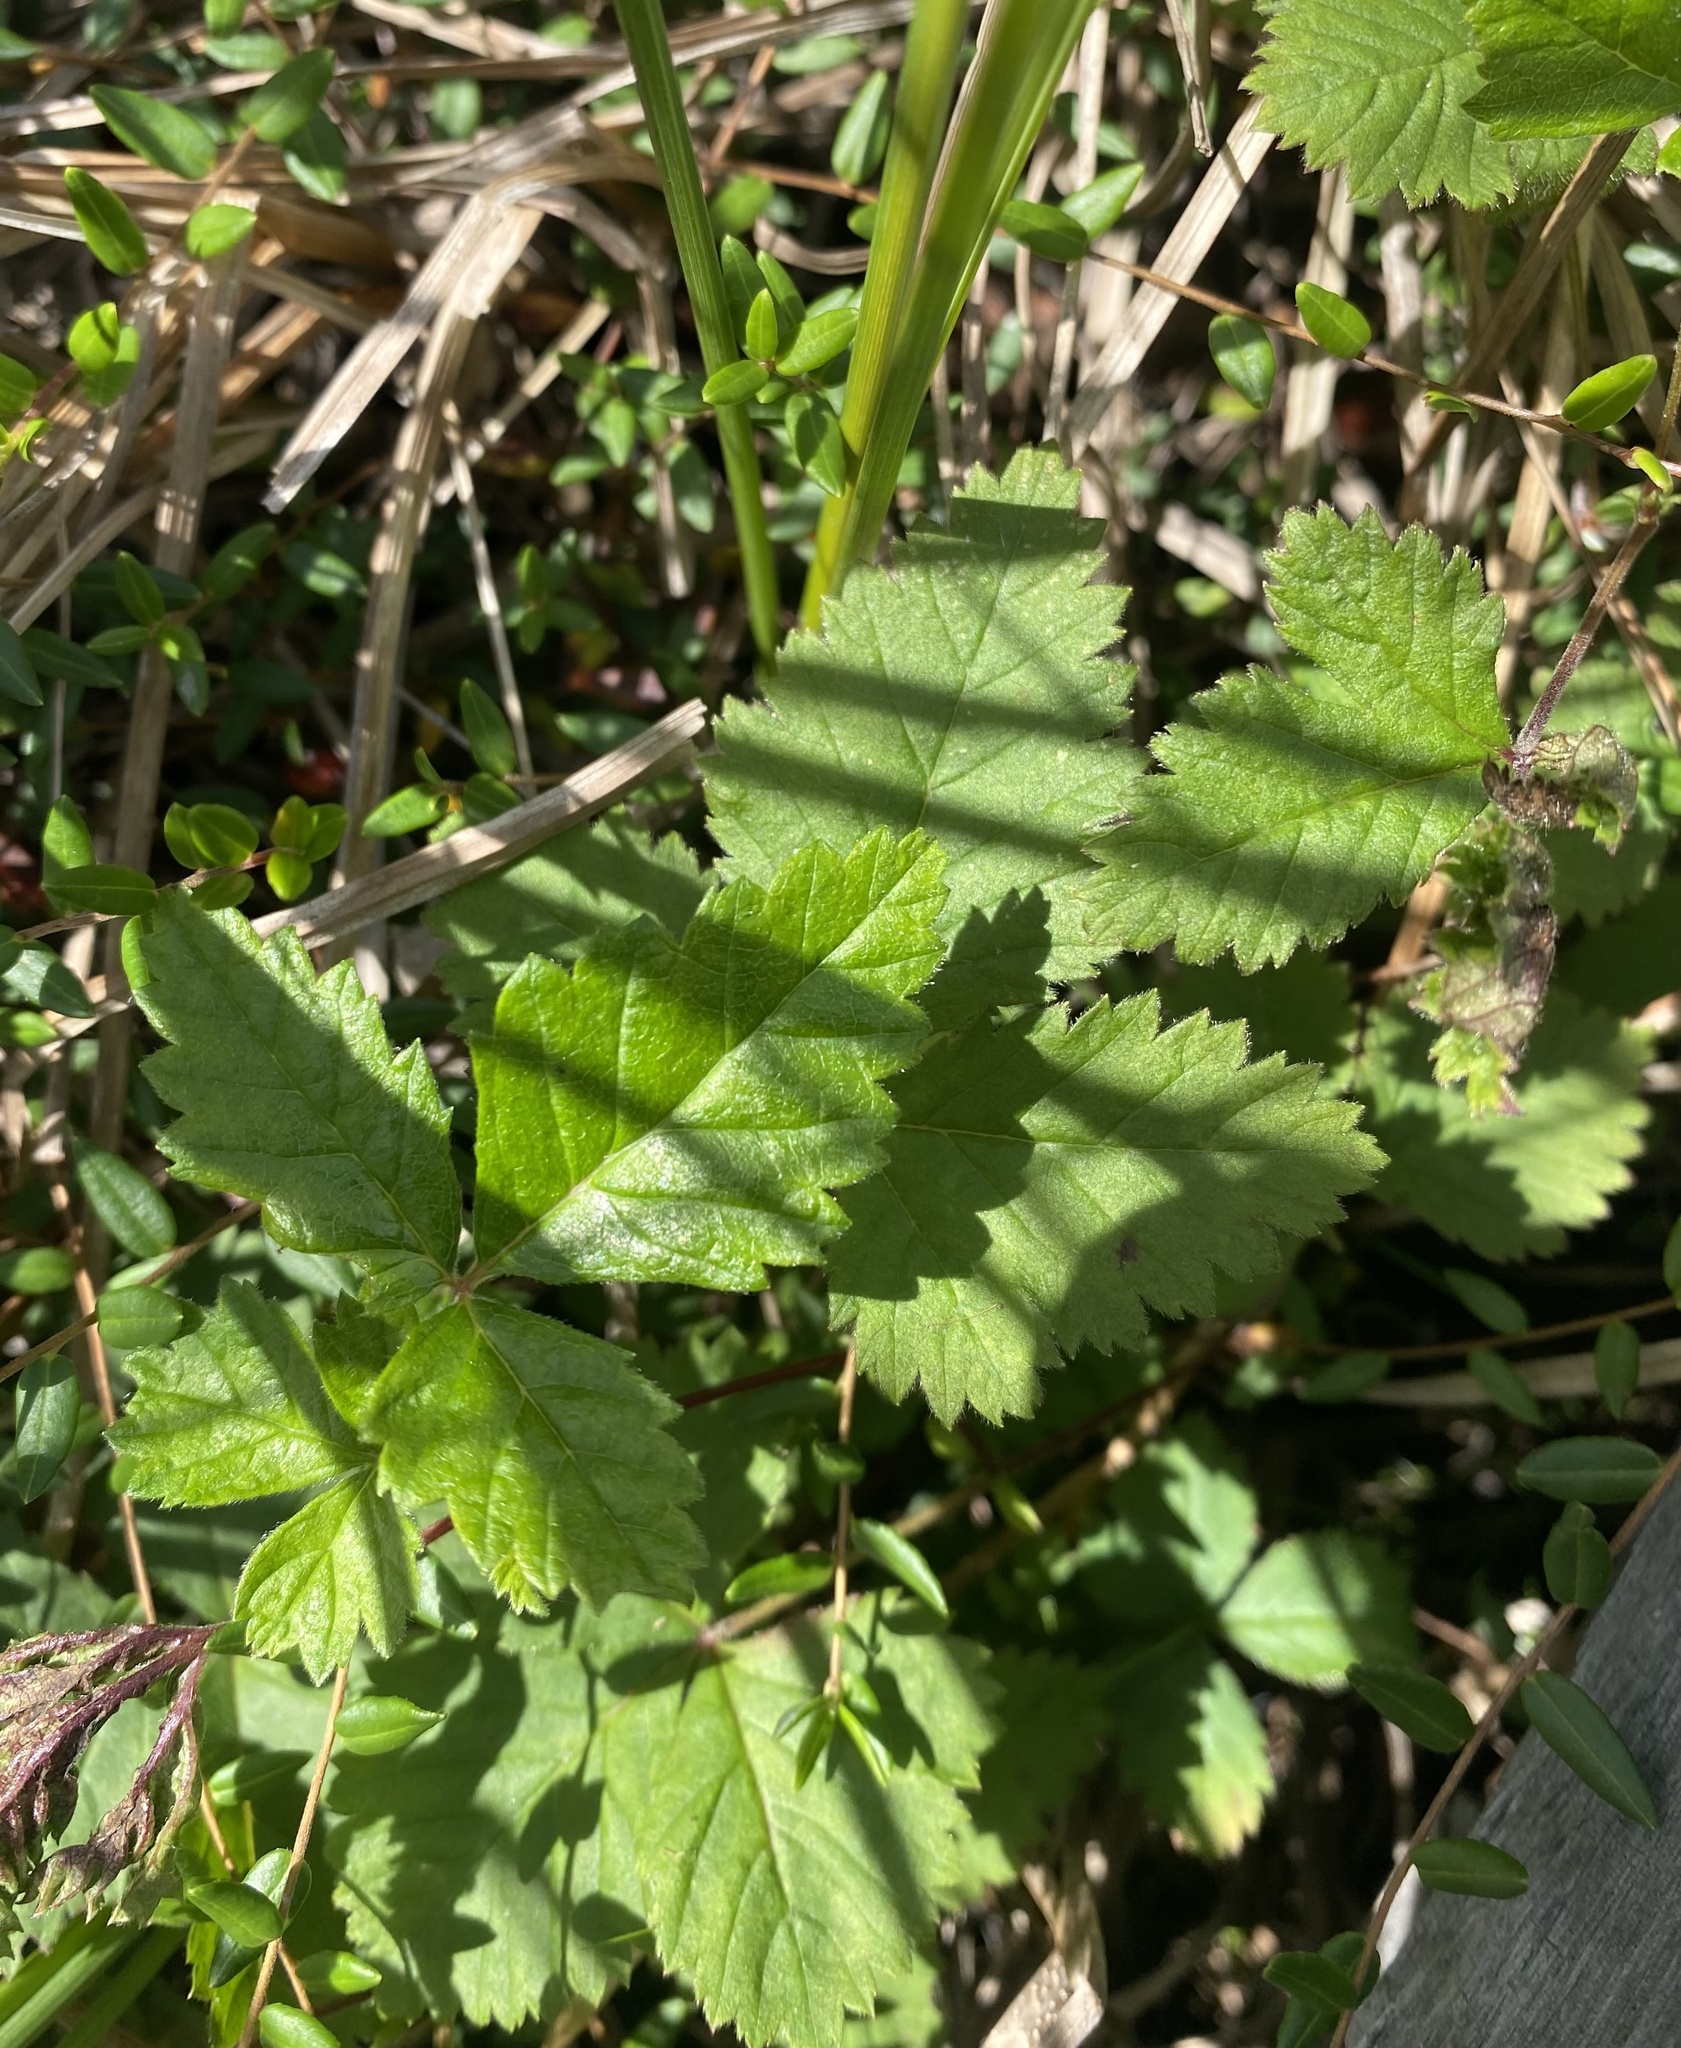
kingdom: Plantae
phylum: Tracheophyta
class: Magnoliopsida
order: Rosales
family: Rosaceae
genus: Rubus
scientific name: Rubus arcticus
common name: Arctic bramble
